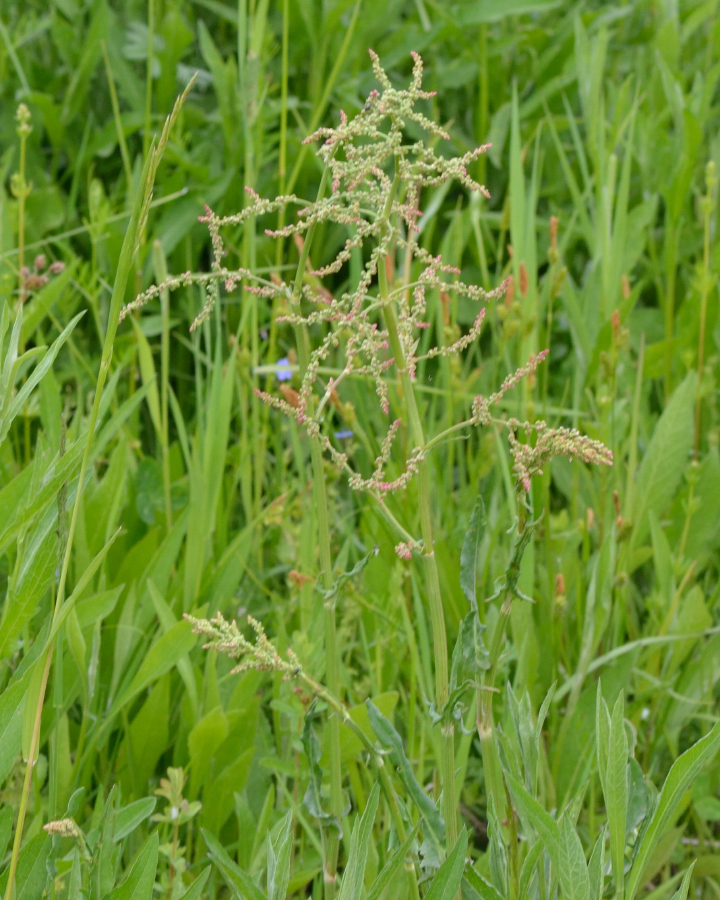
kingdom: Plantae
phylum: Tracheophyta
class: Magnoliopsida
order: Caryophyllales
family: Polygonaceae
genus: Rumex
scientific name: Rumex thyrsiflorus
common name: Garden sorrel
